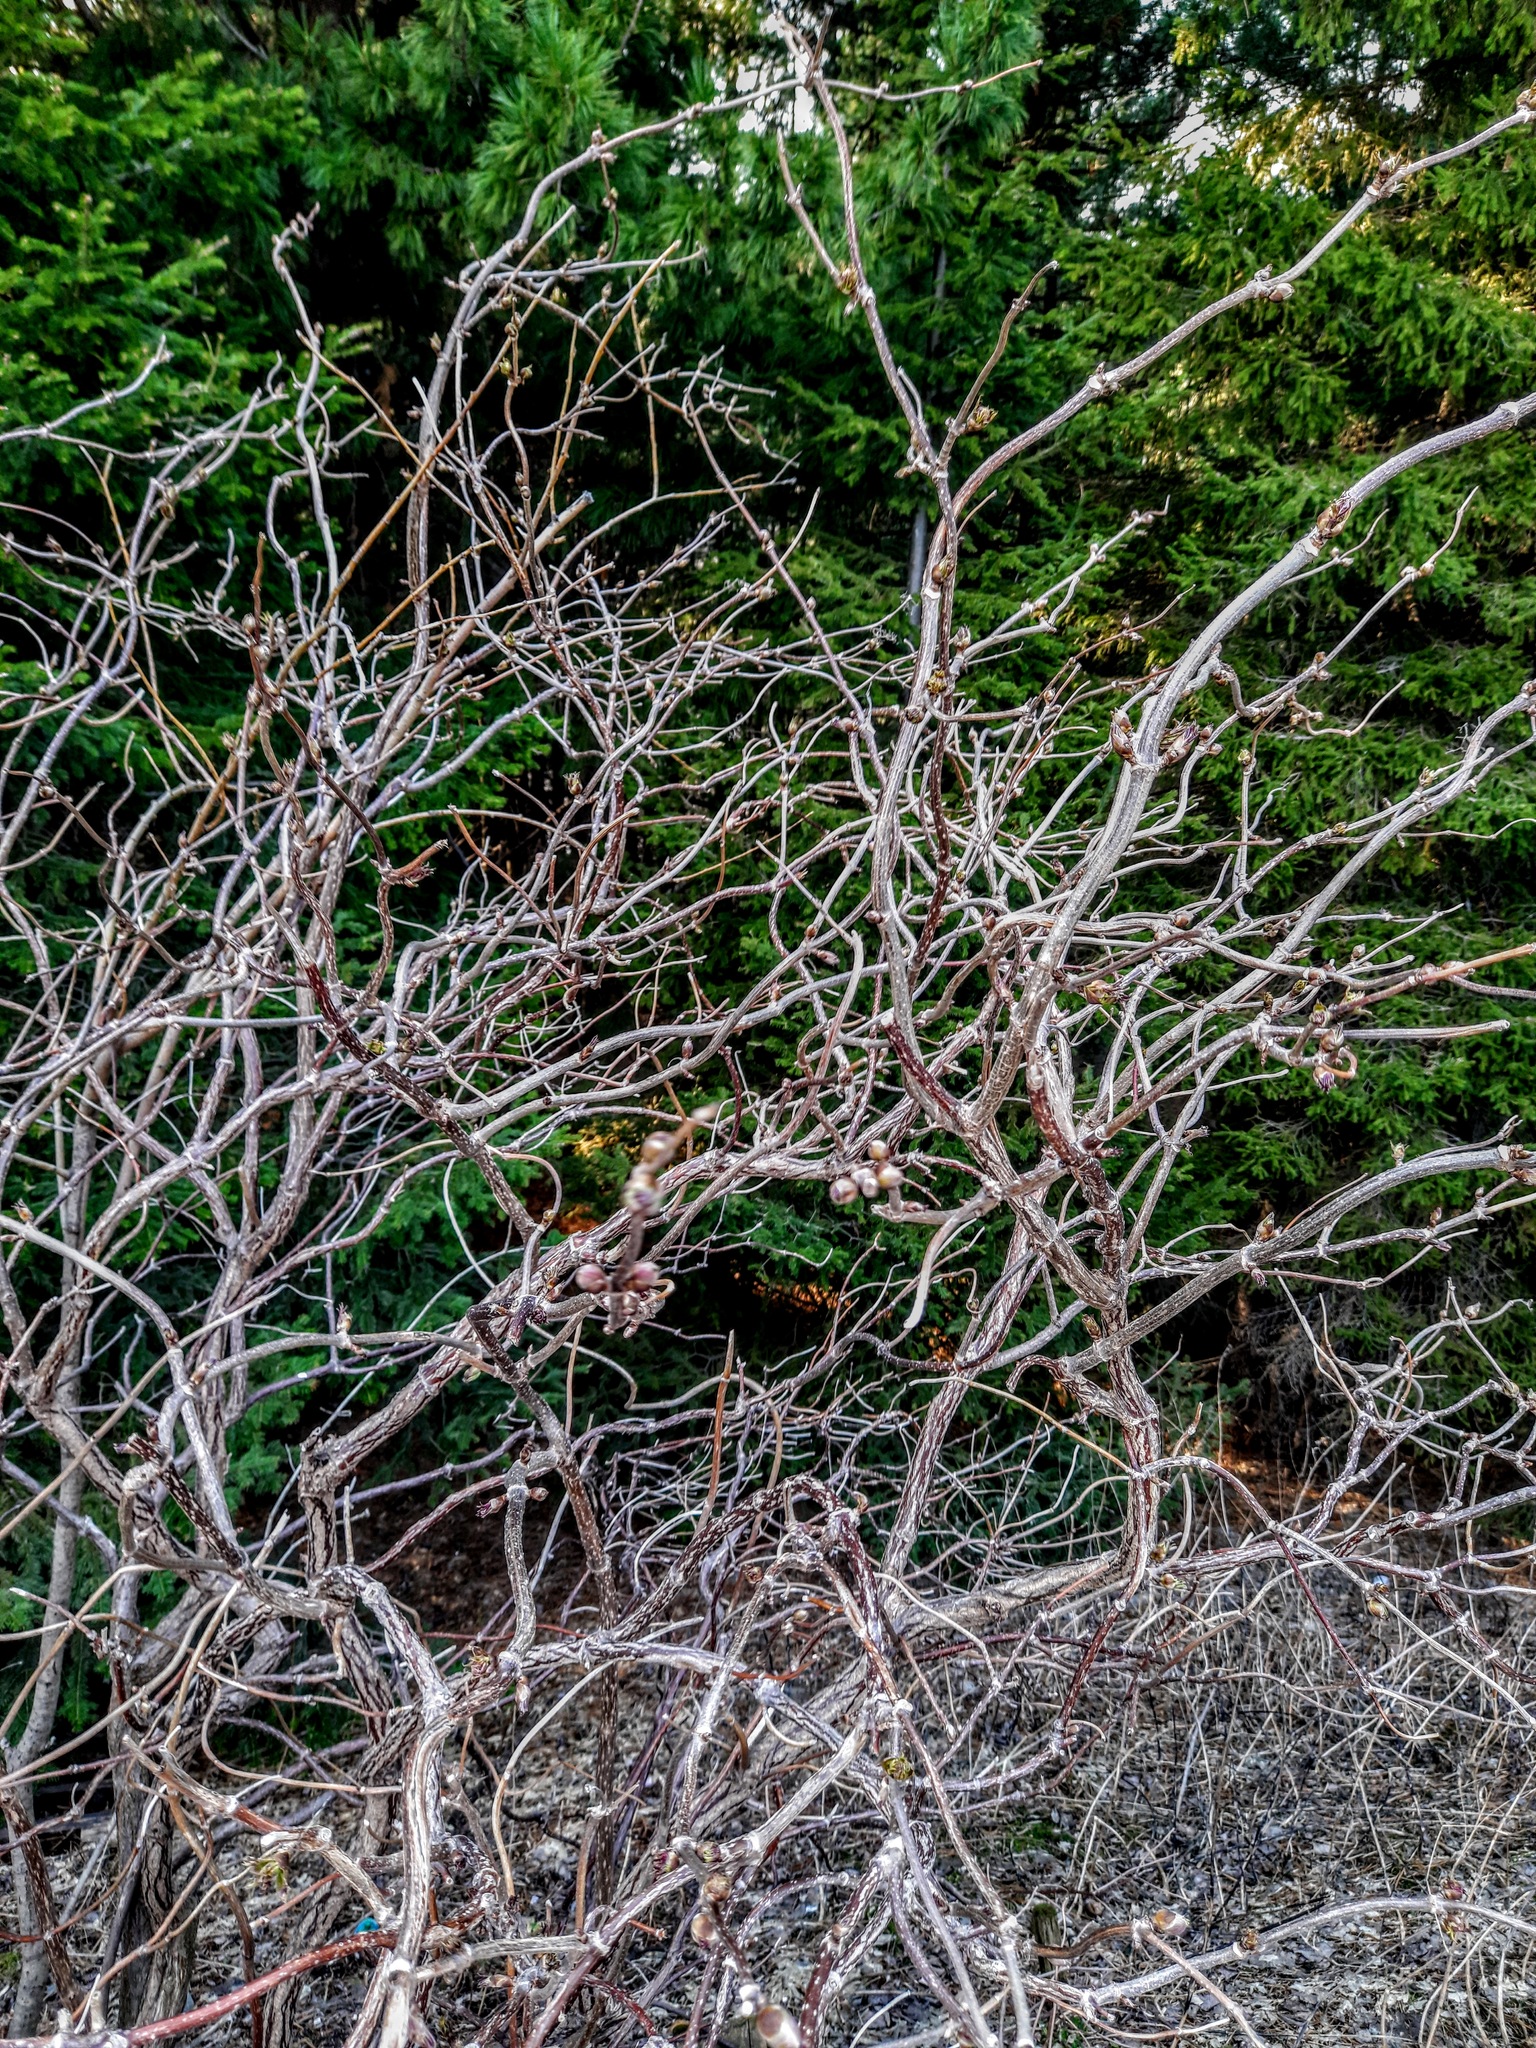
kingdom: Plantae
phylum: Tracheophyta
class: Magnoliopsida
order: Dipsacales
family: Viburnaceae
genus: Sambucus
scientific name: Sambucus sibirica
